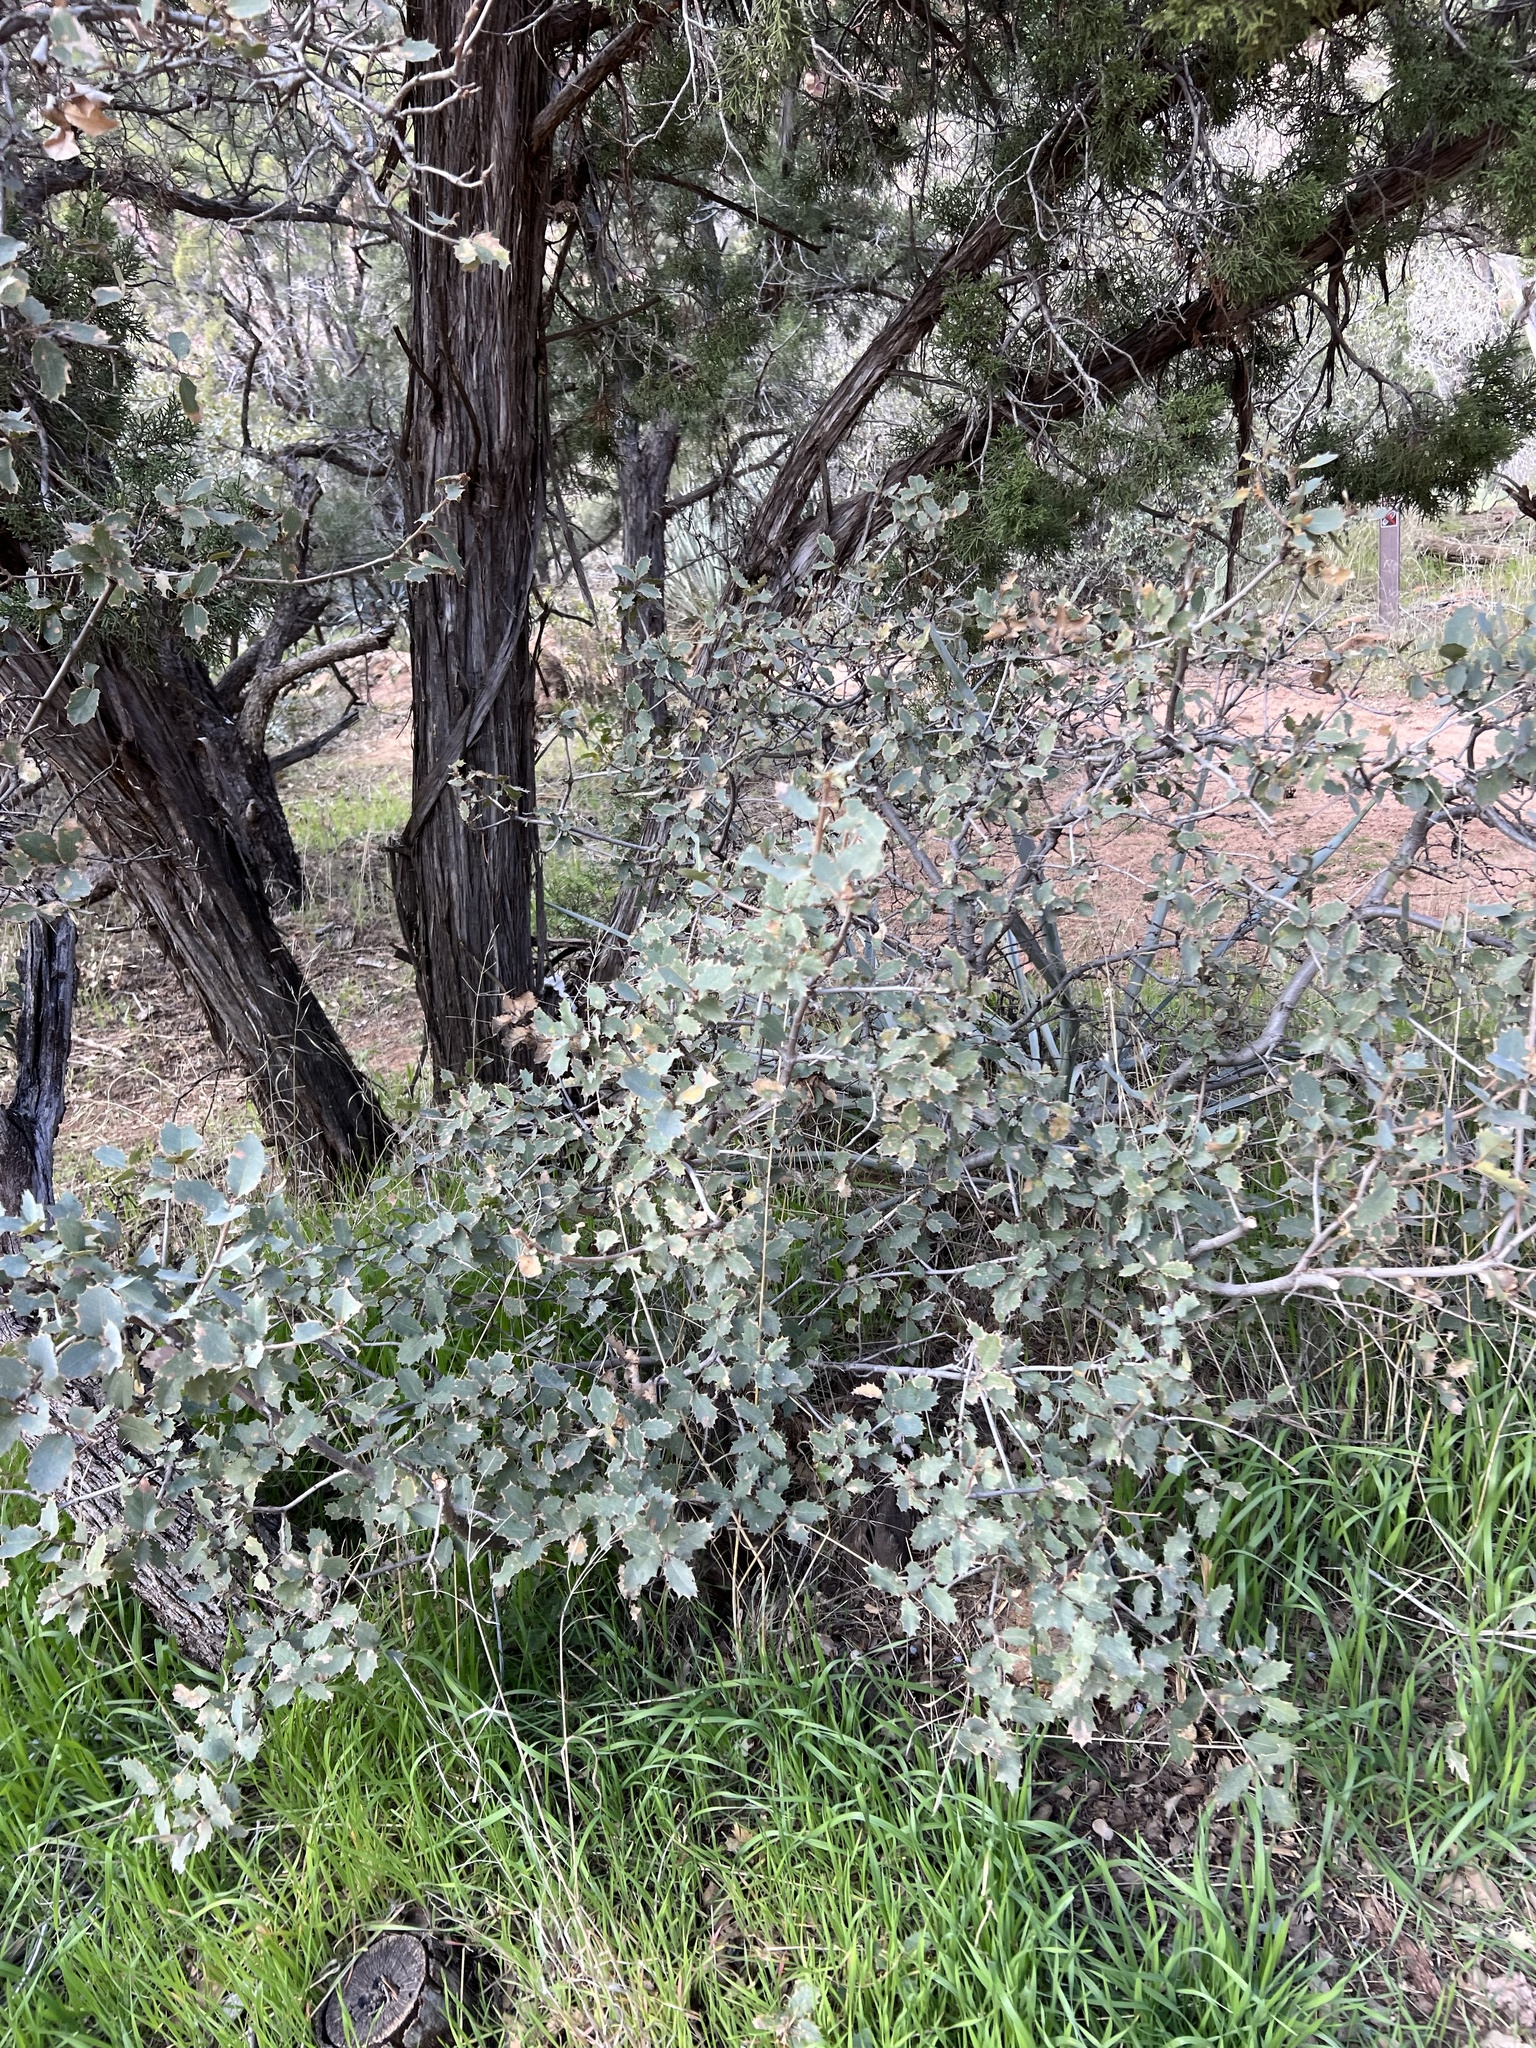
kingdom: Plantae
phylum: Tracheophyta
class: Magnoliopsida
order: Fagales
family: Fagaceae
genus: Quercus
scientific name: Quercus turbinella
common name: Sonoran scrub oak
